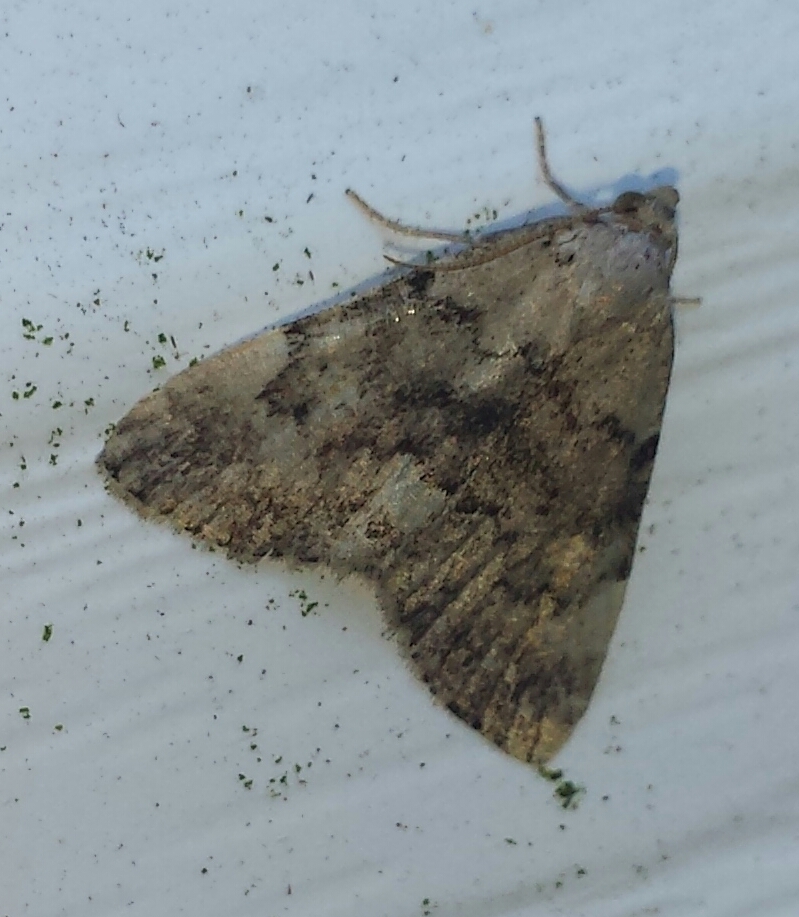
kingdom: Animalia
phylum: Arthropoda
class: Insecta
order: Lepidoptera
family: Erebidae
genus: Idia
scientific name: Idia aemula
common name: Common idia moth
